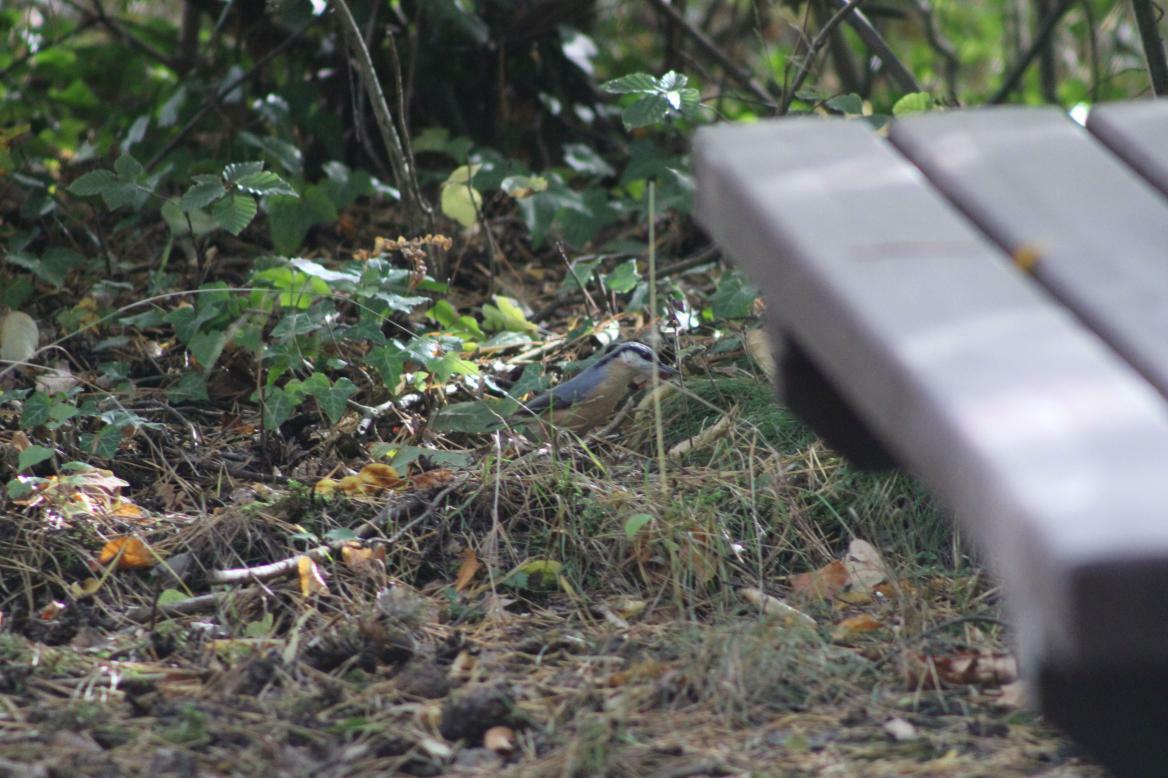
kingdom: Animalia
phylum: Chordata
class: Aves
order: Passeriformes
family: Sittidae
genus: Sitta
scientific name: Sitta europaea
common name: Eurasian nuthatch
